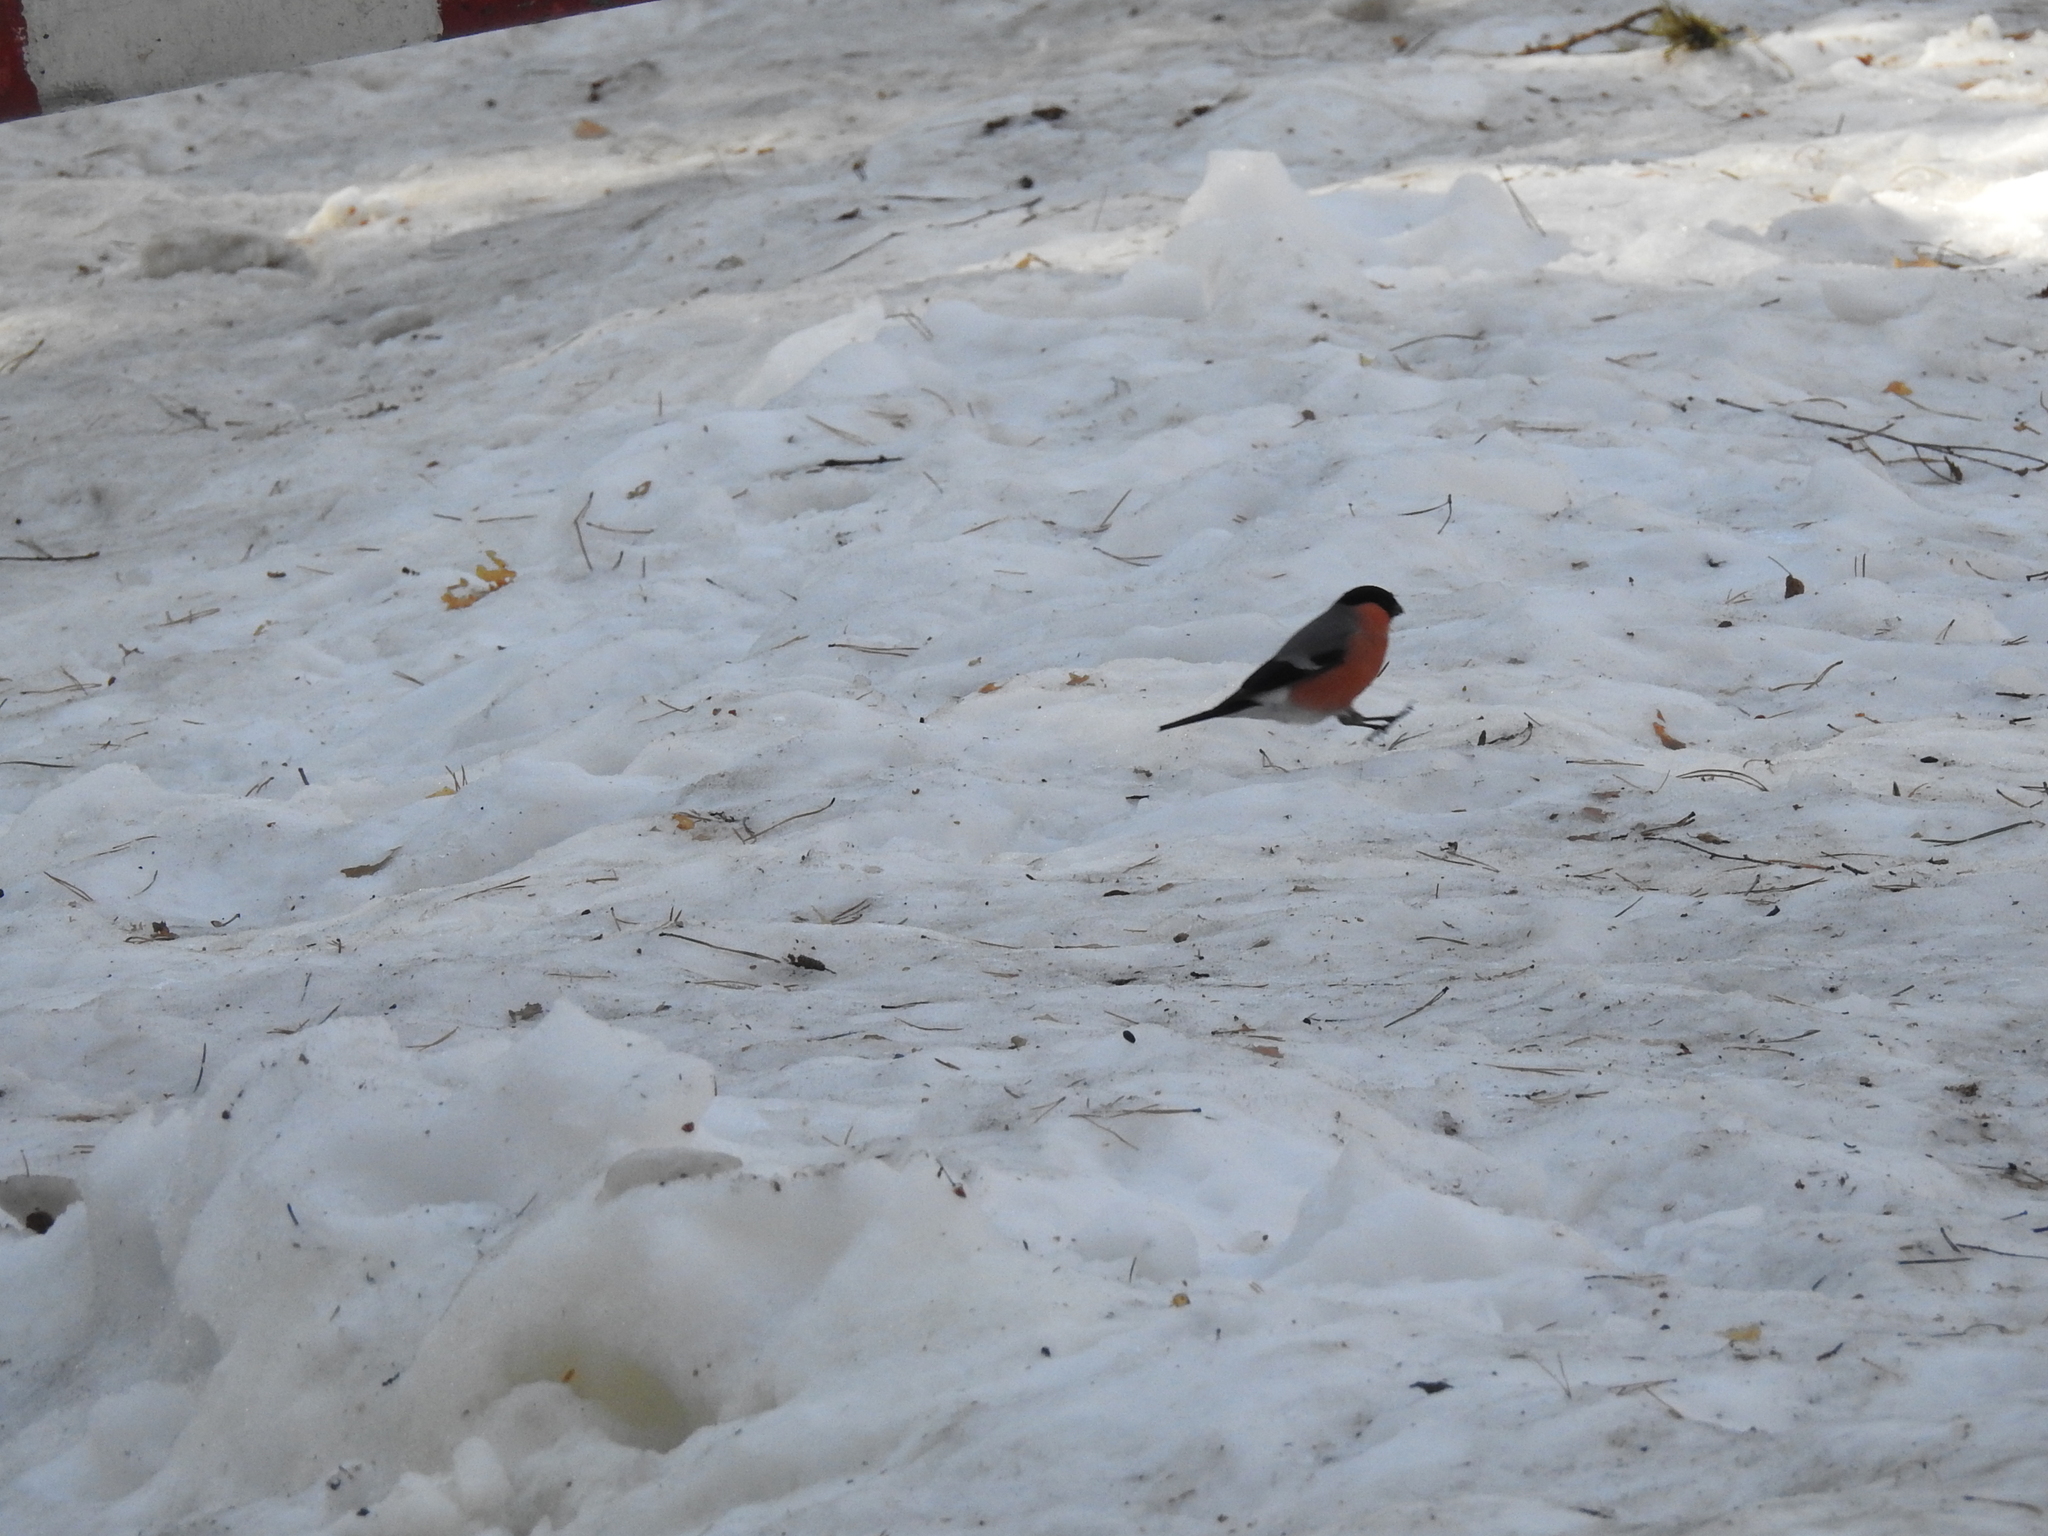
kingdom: Animalia
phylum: Chordata
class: Aves
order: Passeriformes
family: Fringillidae
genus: Pyrrhula
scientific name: Pyrrhula pyrrhula
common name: Eurasian bullfinch
